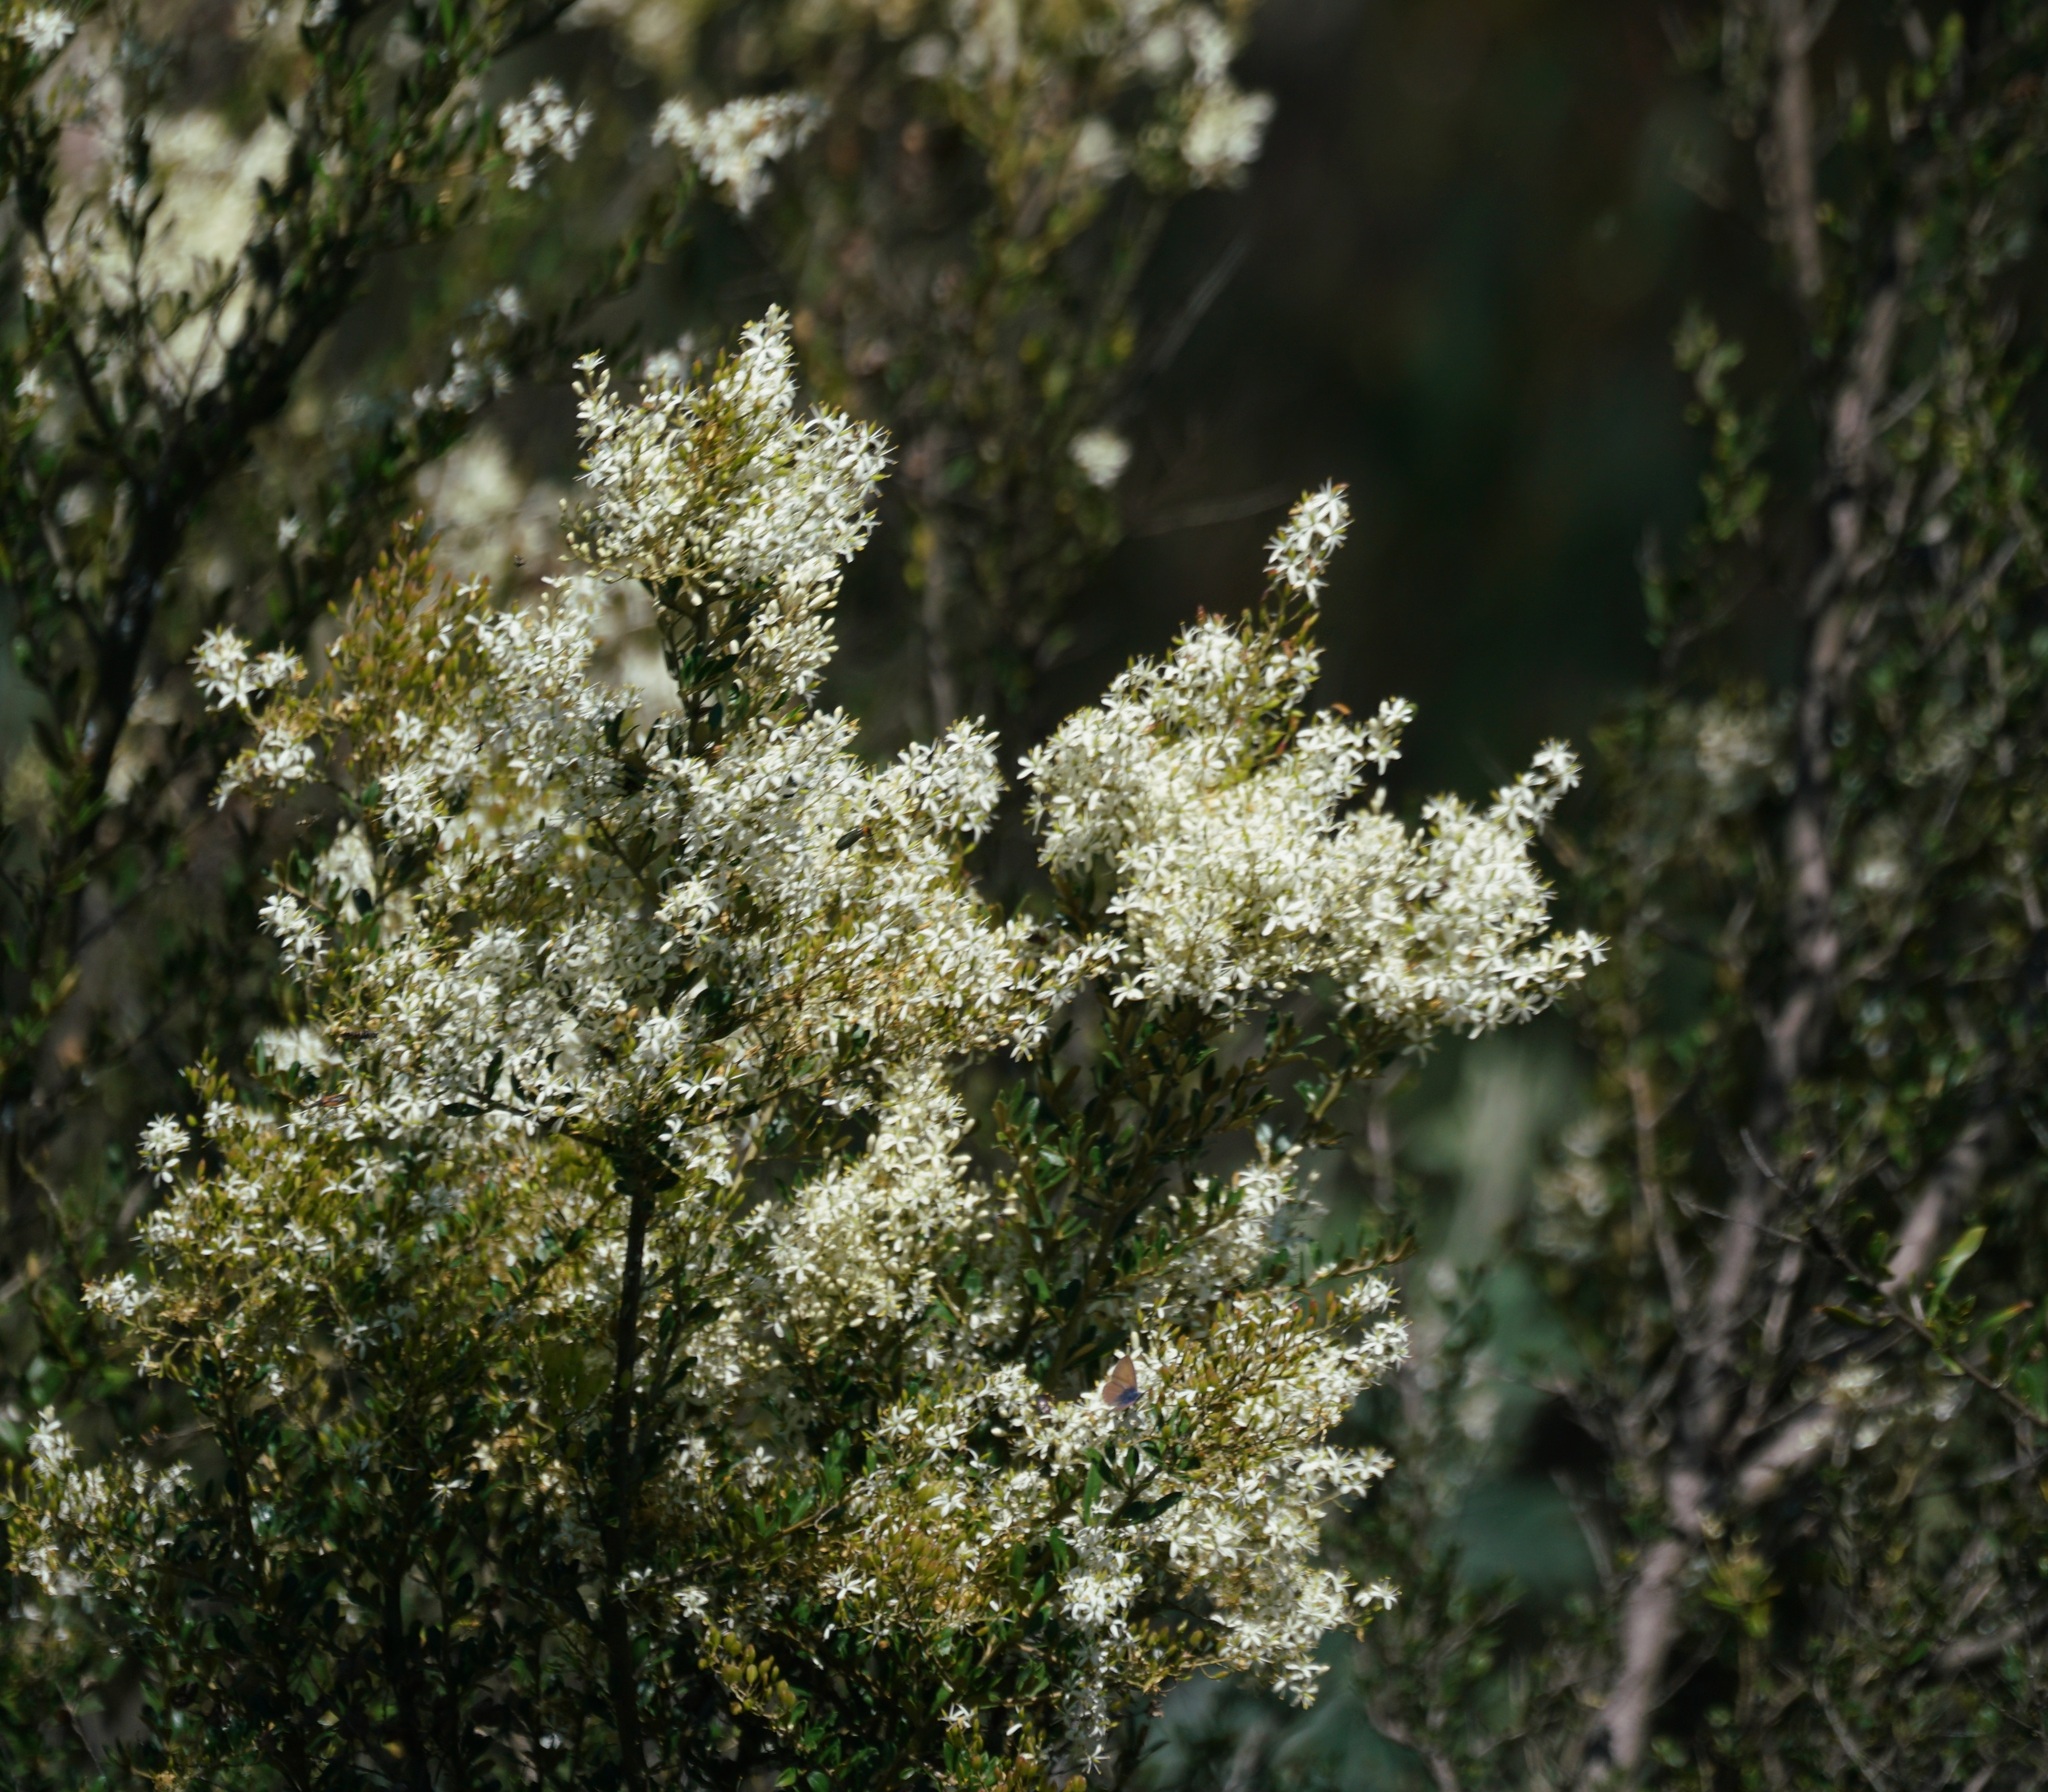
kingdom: Plantae
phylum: Tracheophyta
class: Magnoliopsida
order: Apiales
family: Pittosporaceae
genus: Bursaria
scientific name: Bursaria spinosa
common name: Australian blackthorn
